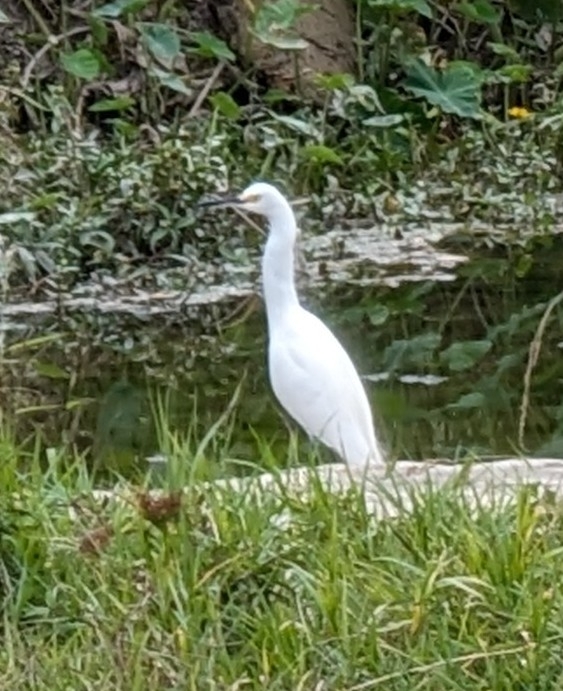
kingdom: Animalia
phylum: Chordata
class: Aves
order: Pelecaniformes
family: Ardeidae
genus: Egretta
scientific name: Egretta thula
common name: Snowy egret
